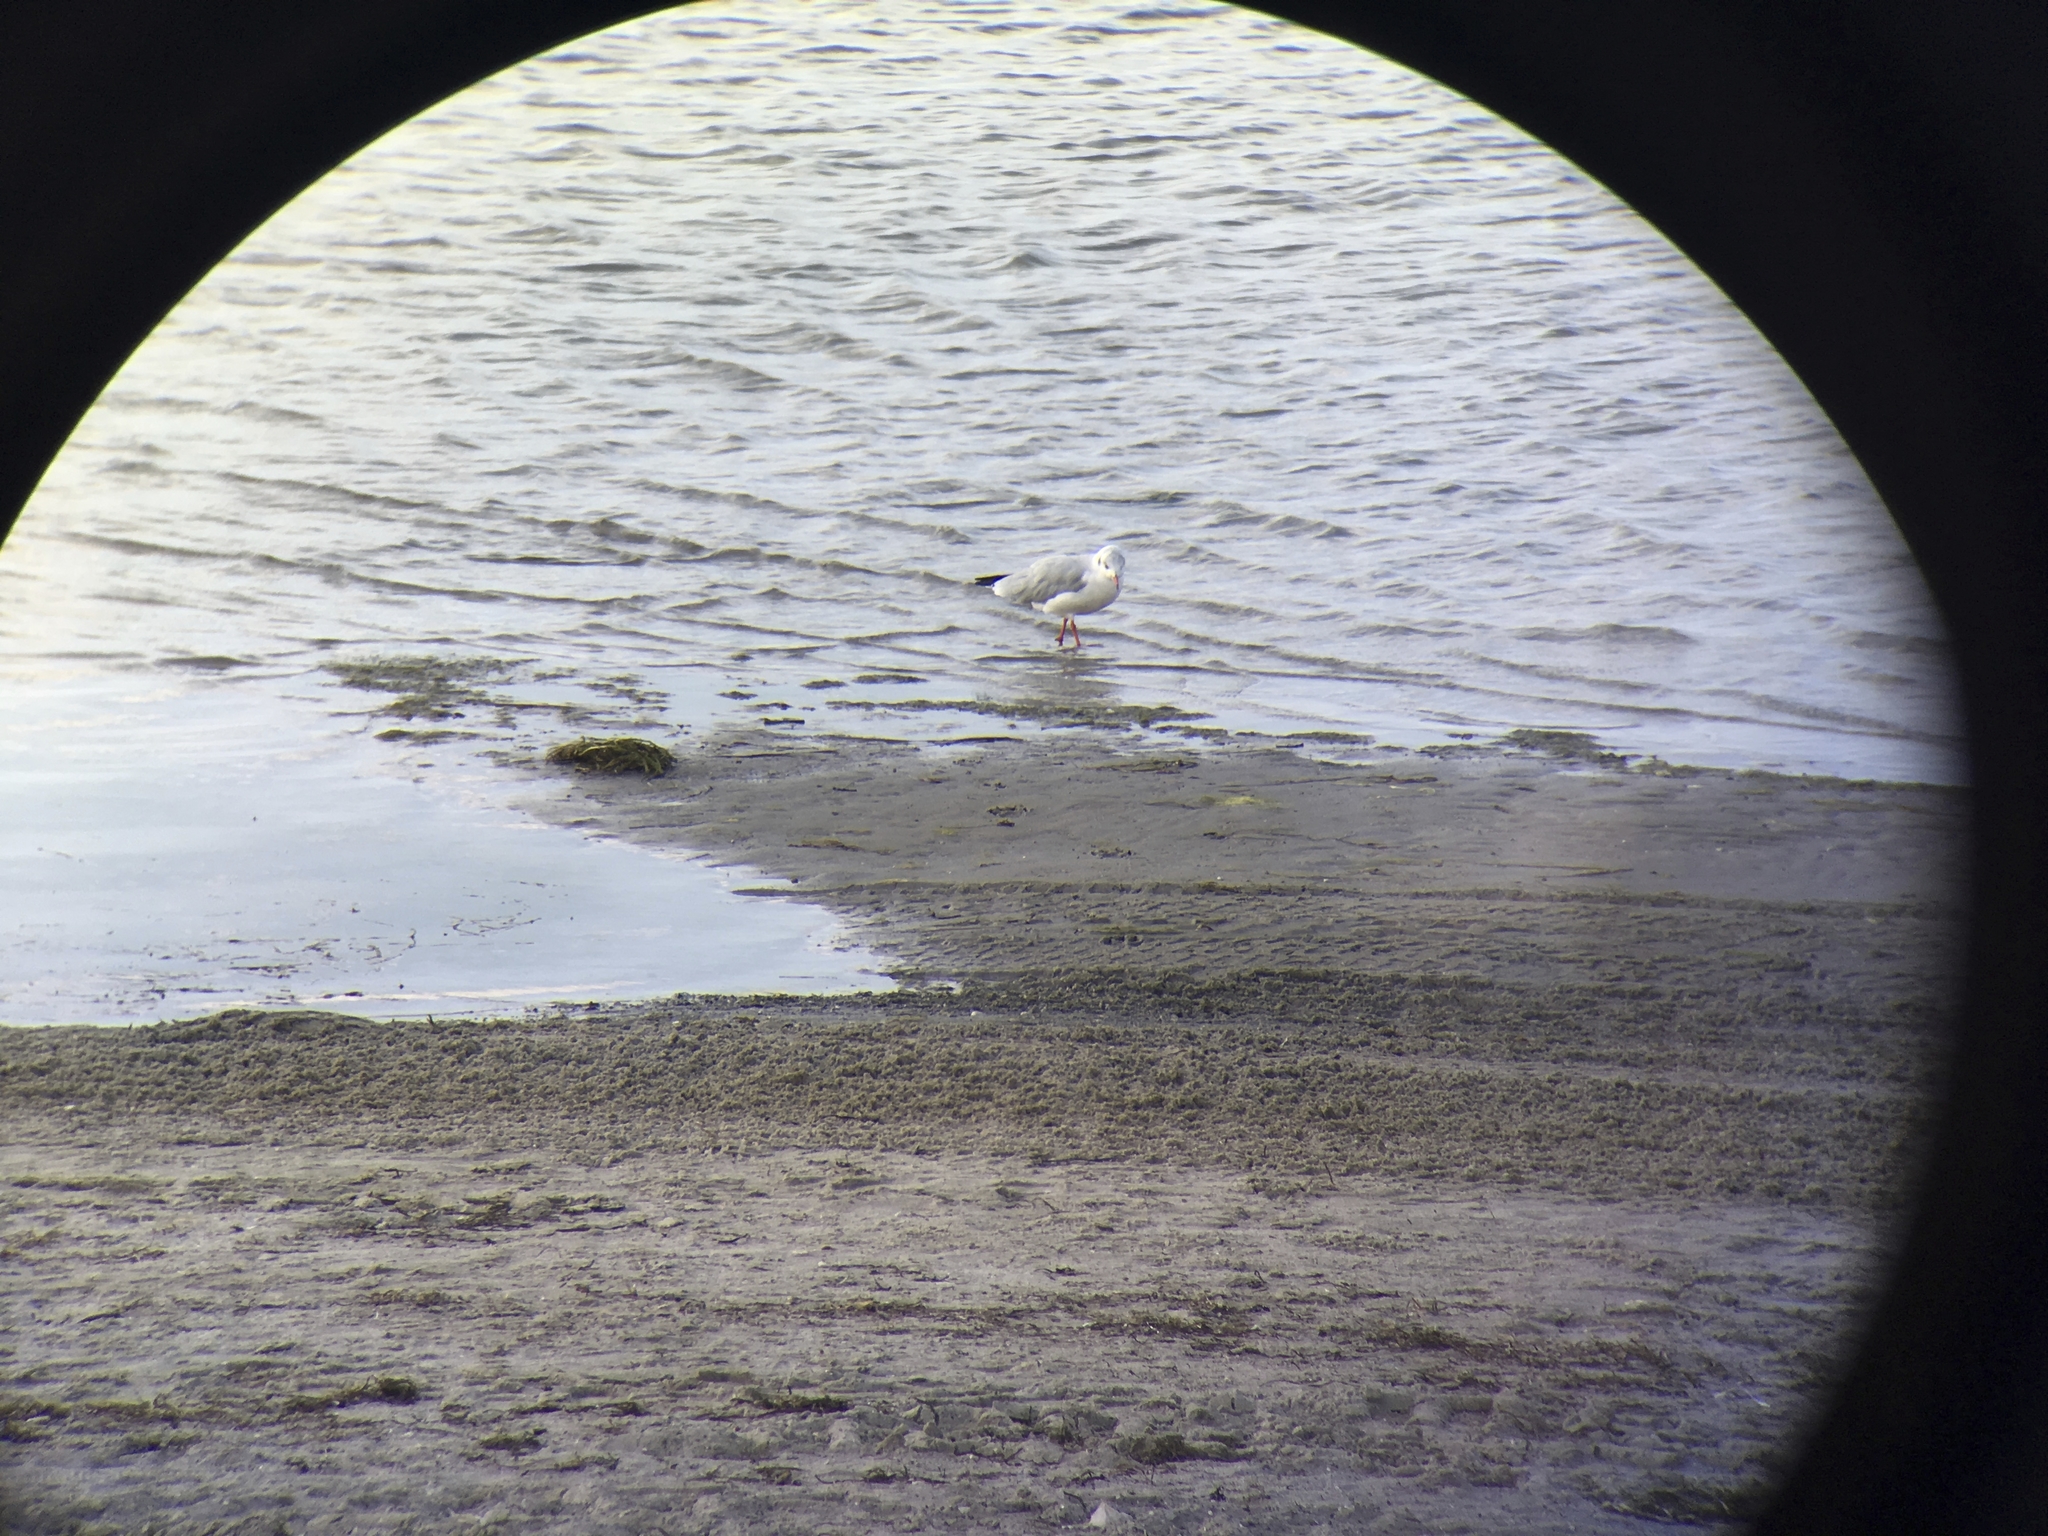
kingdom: Animalia
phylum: Chordata
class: Aves
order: Charadriiformes
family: Laridae
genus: Chroicocephalus
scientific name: Chroicocephalus ridibundus
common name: Black-headed gull
